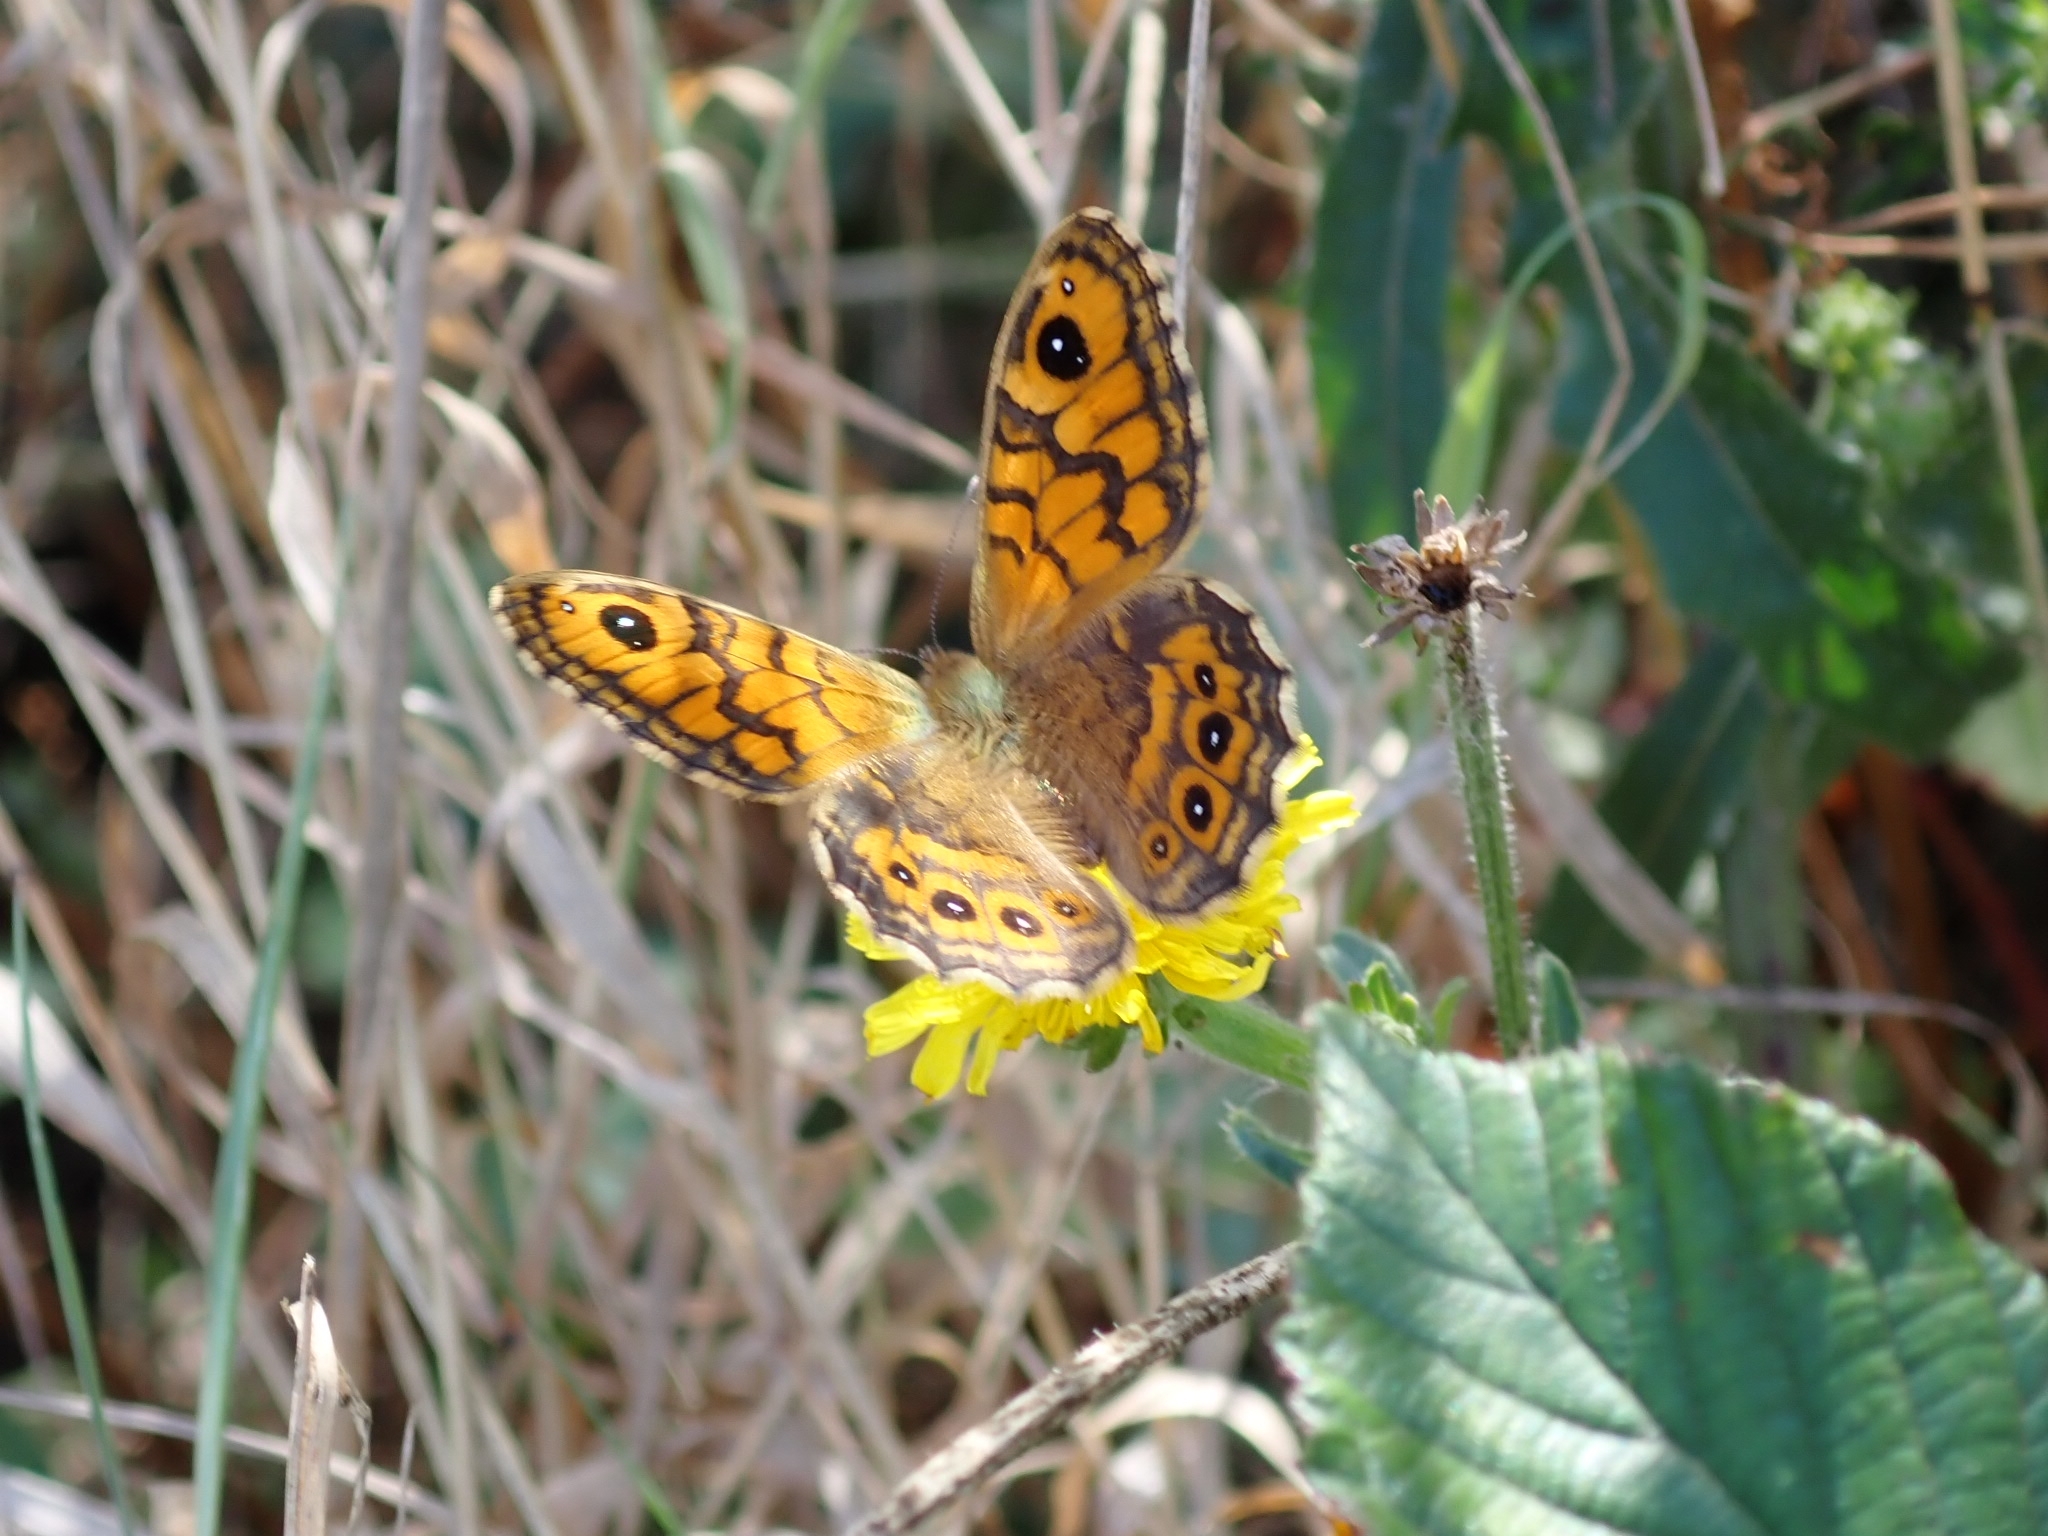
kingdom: Animalia
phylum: Arthropoda
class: Insecta
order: Lepidoptera
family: Nymphalidae
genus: Pararge
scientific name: Pararge Lasiommata megera
